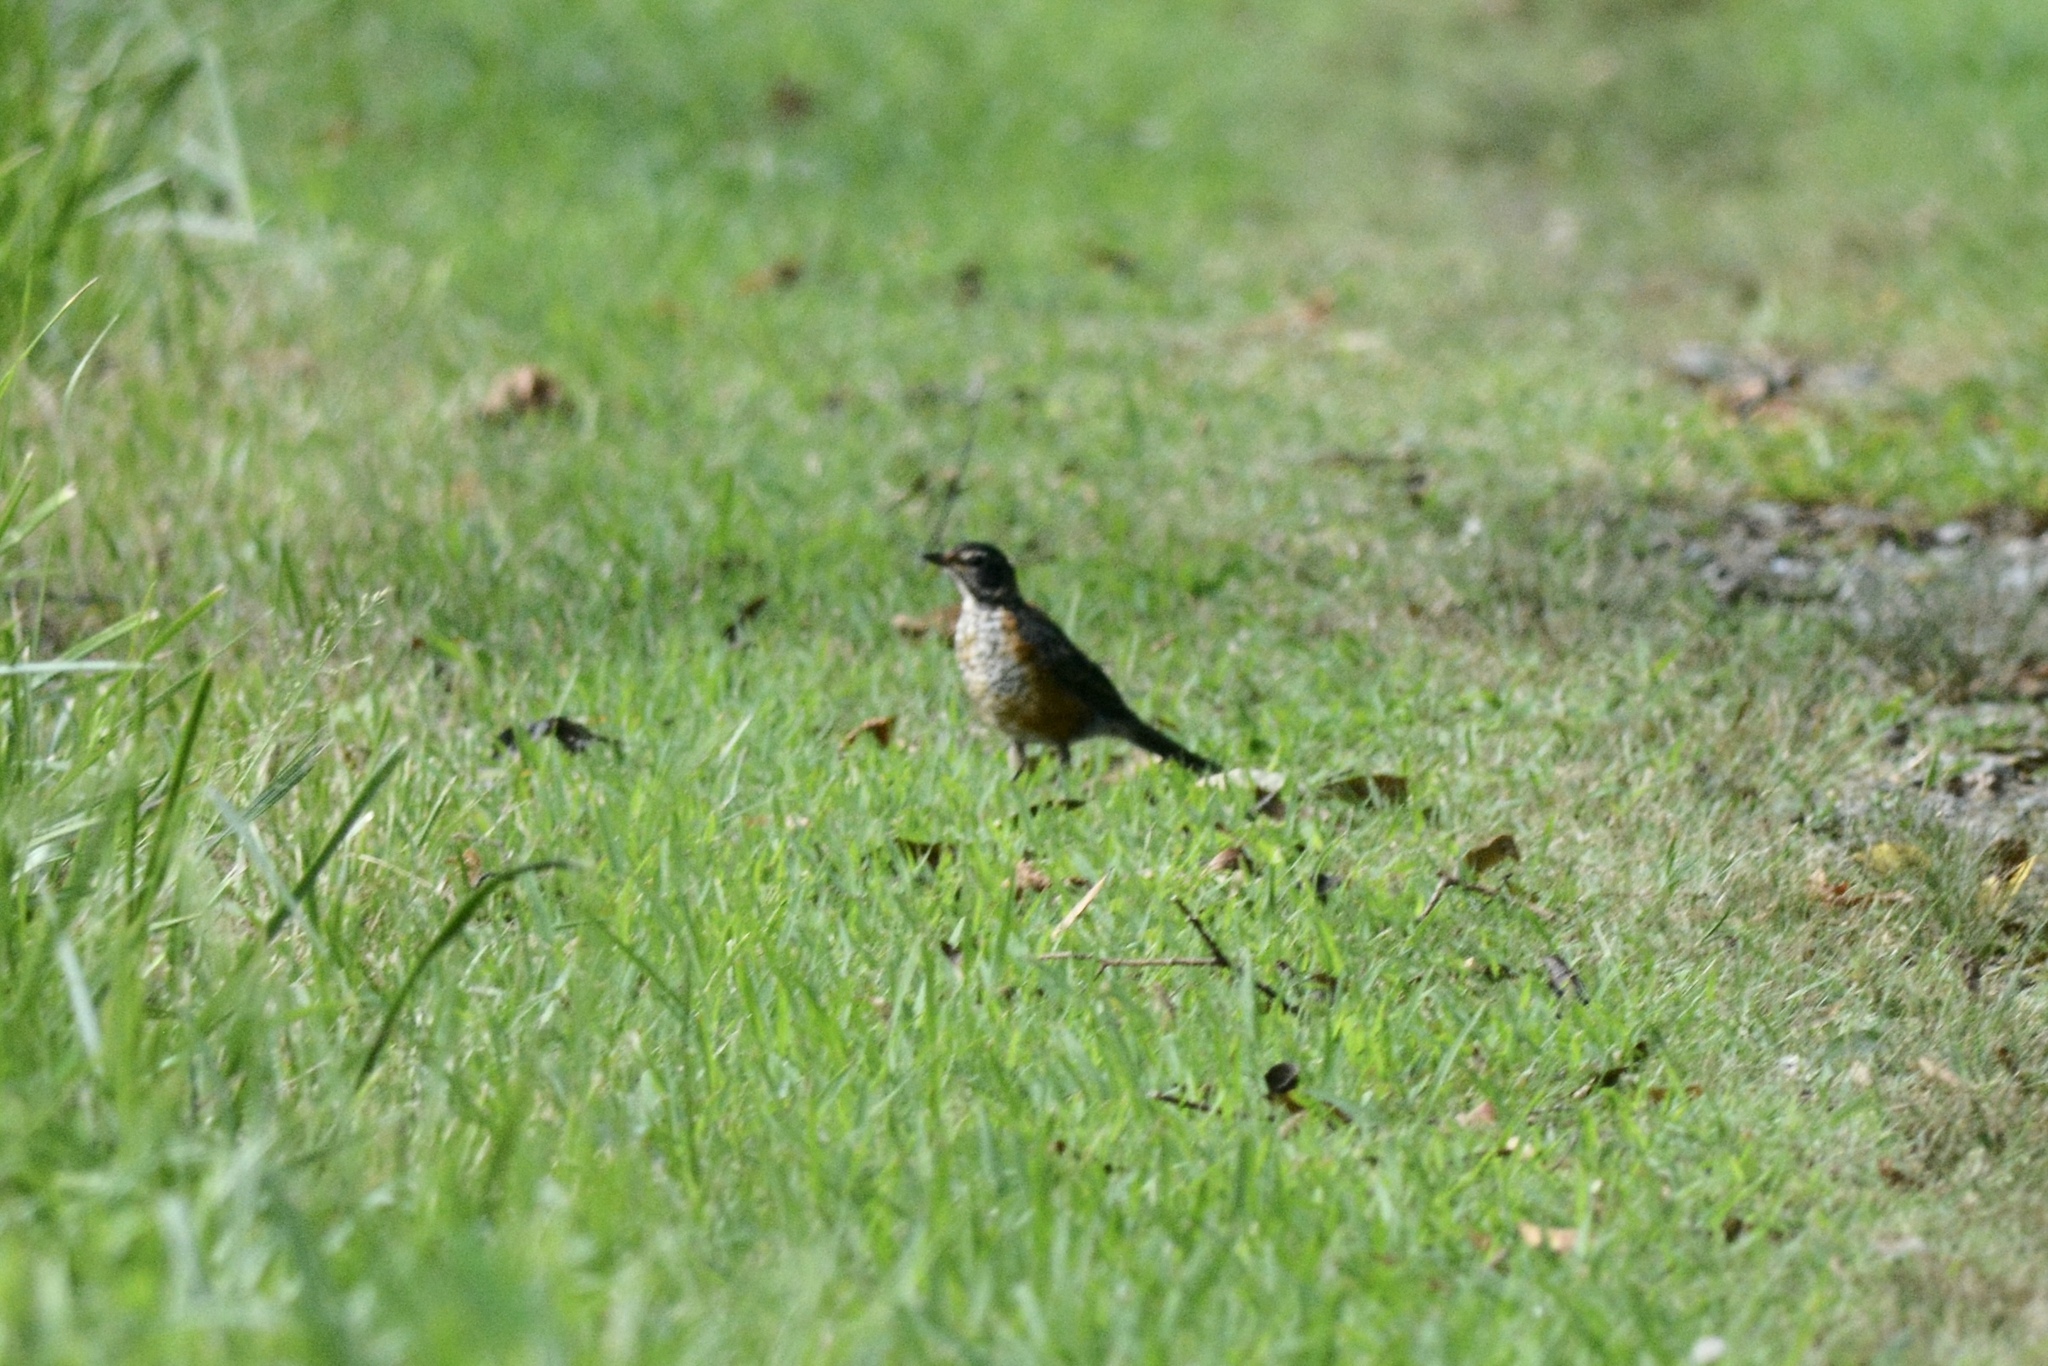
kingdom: Animalia
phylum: Chordata
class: Aves
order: Passeriformes
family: Turdidae
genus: Turdus
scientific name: Turdus migratorius
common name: American robin
